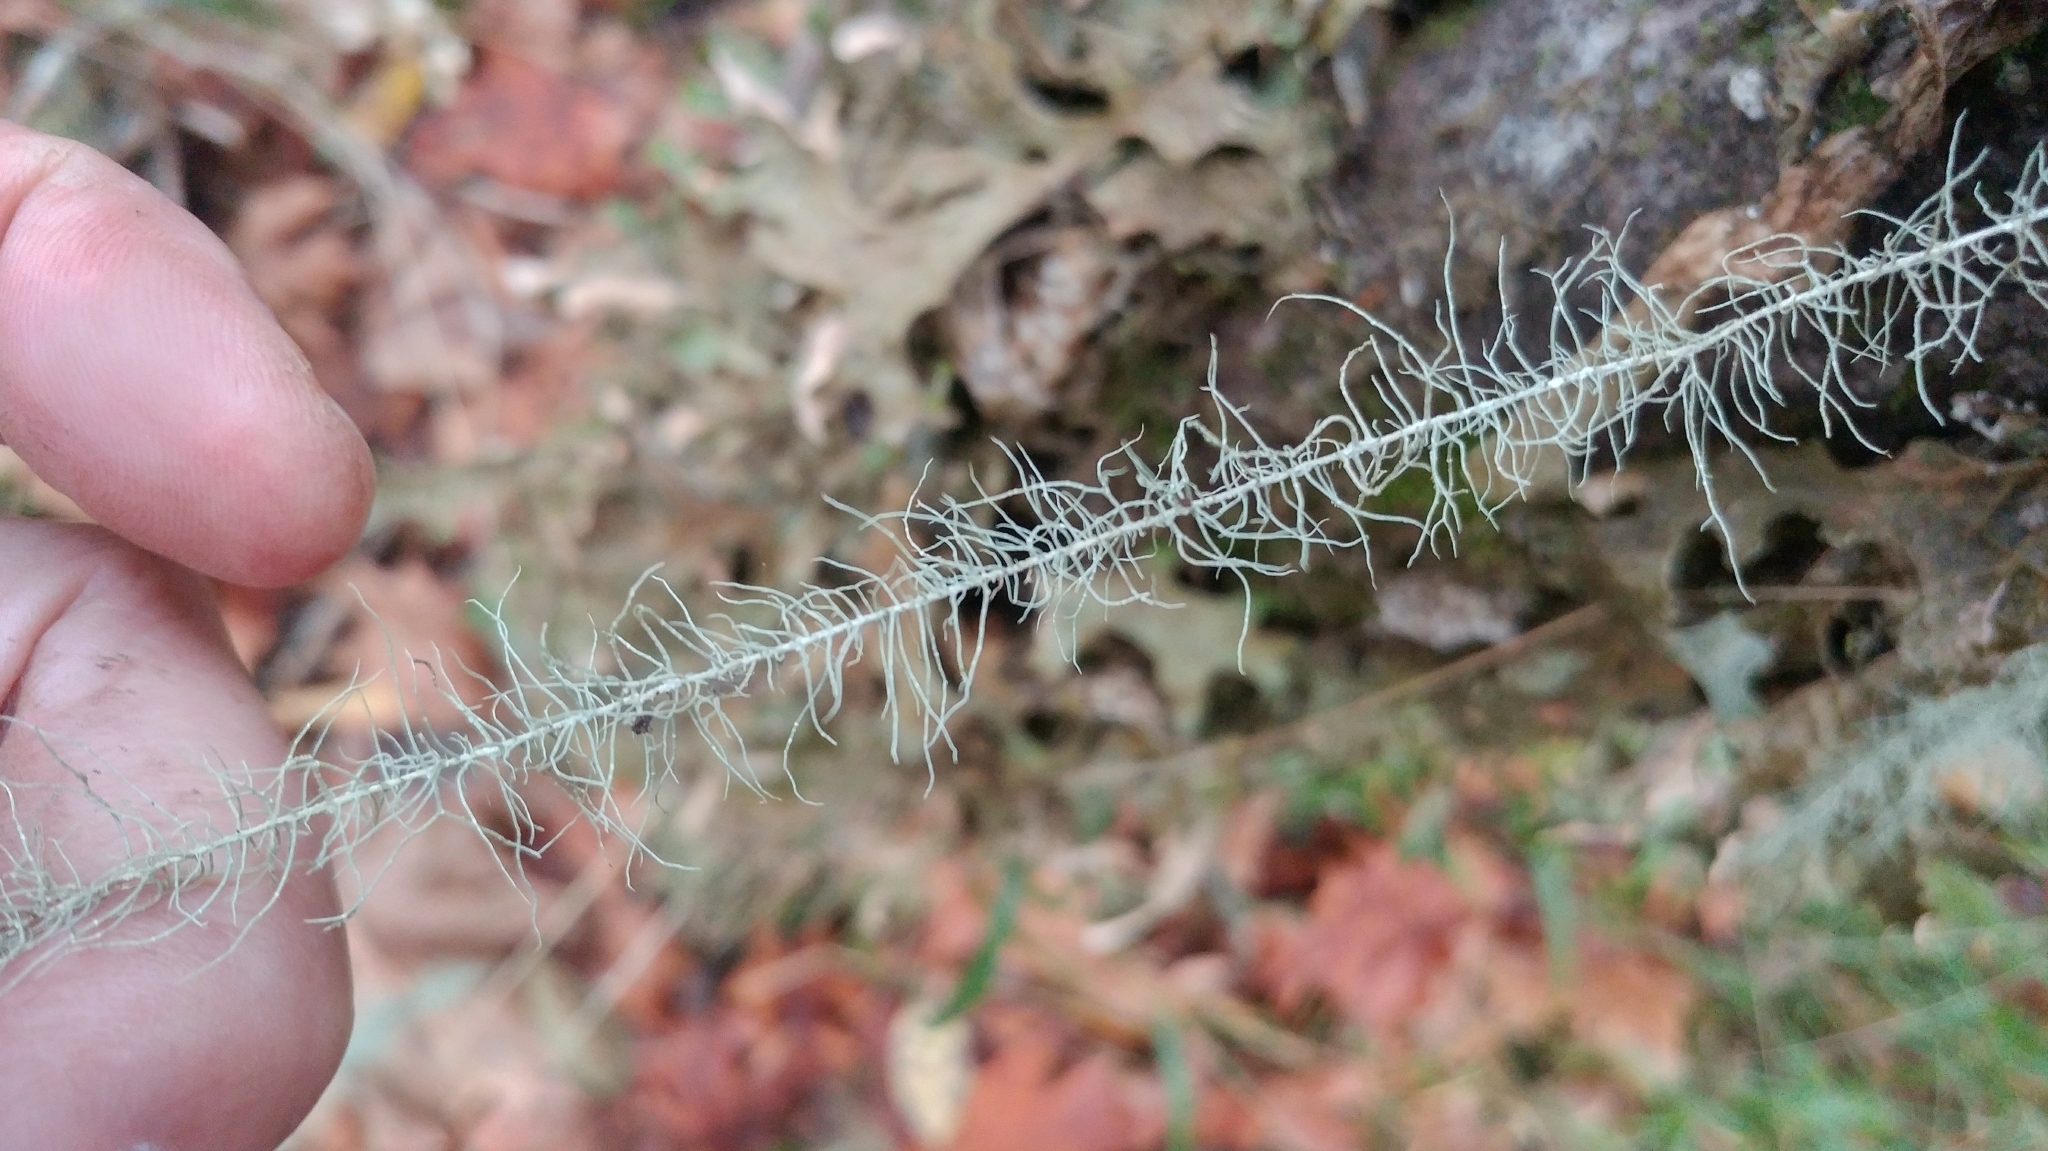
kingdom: Fungi
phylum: Ascomycota
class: Lecanoromycetes
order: Lecanorales
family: Parmeliaceae
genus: Dolichousnea
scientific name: Dolichousnea longissima
